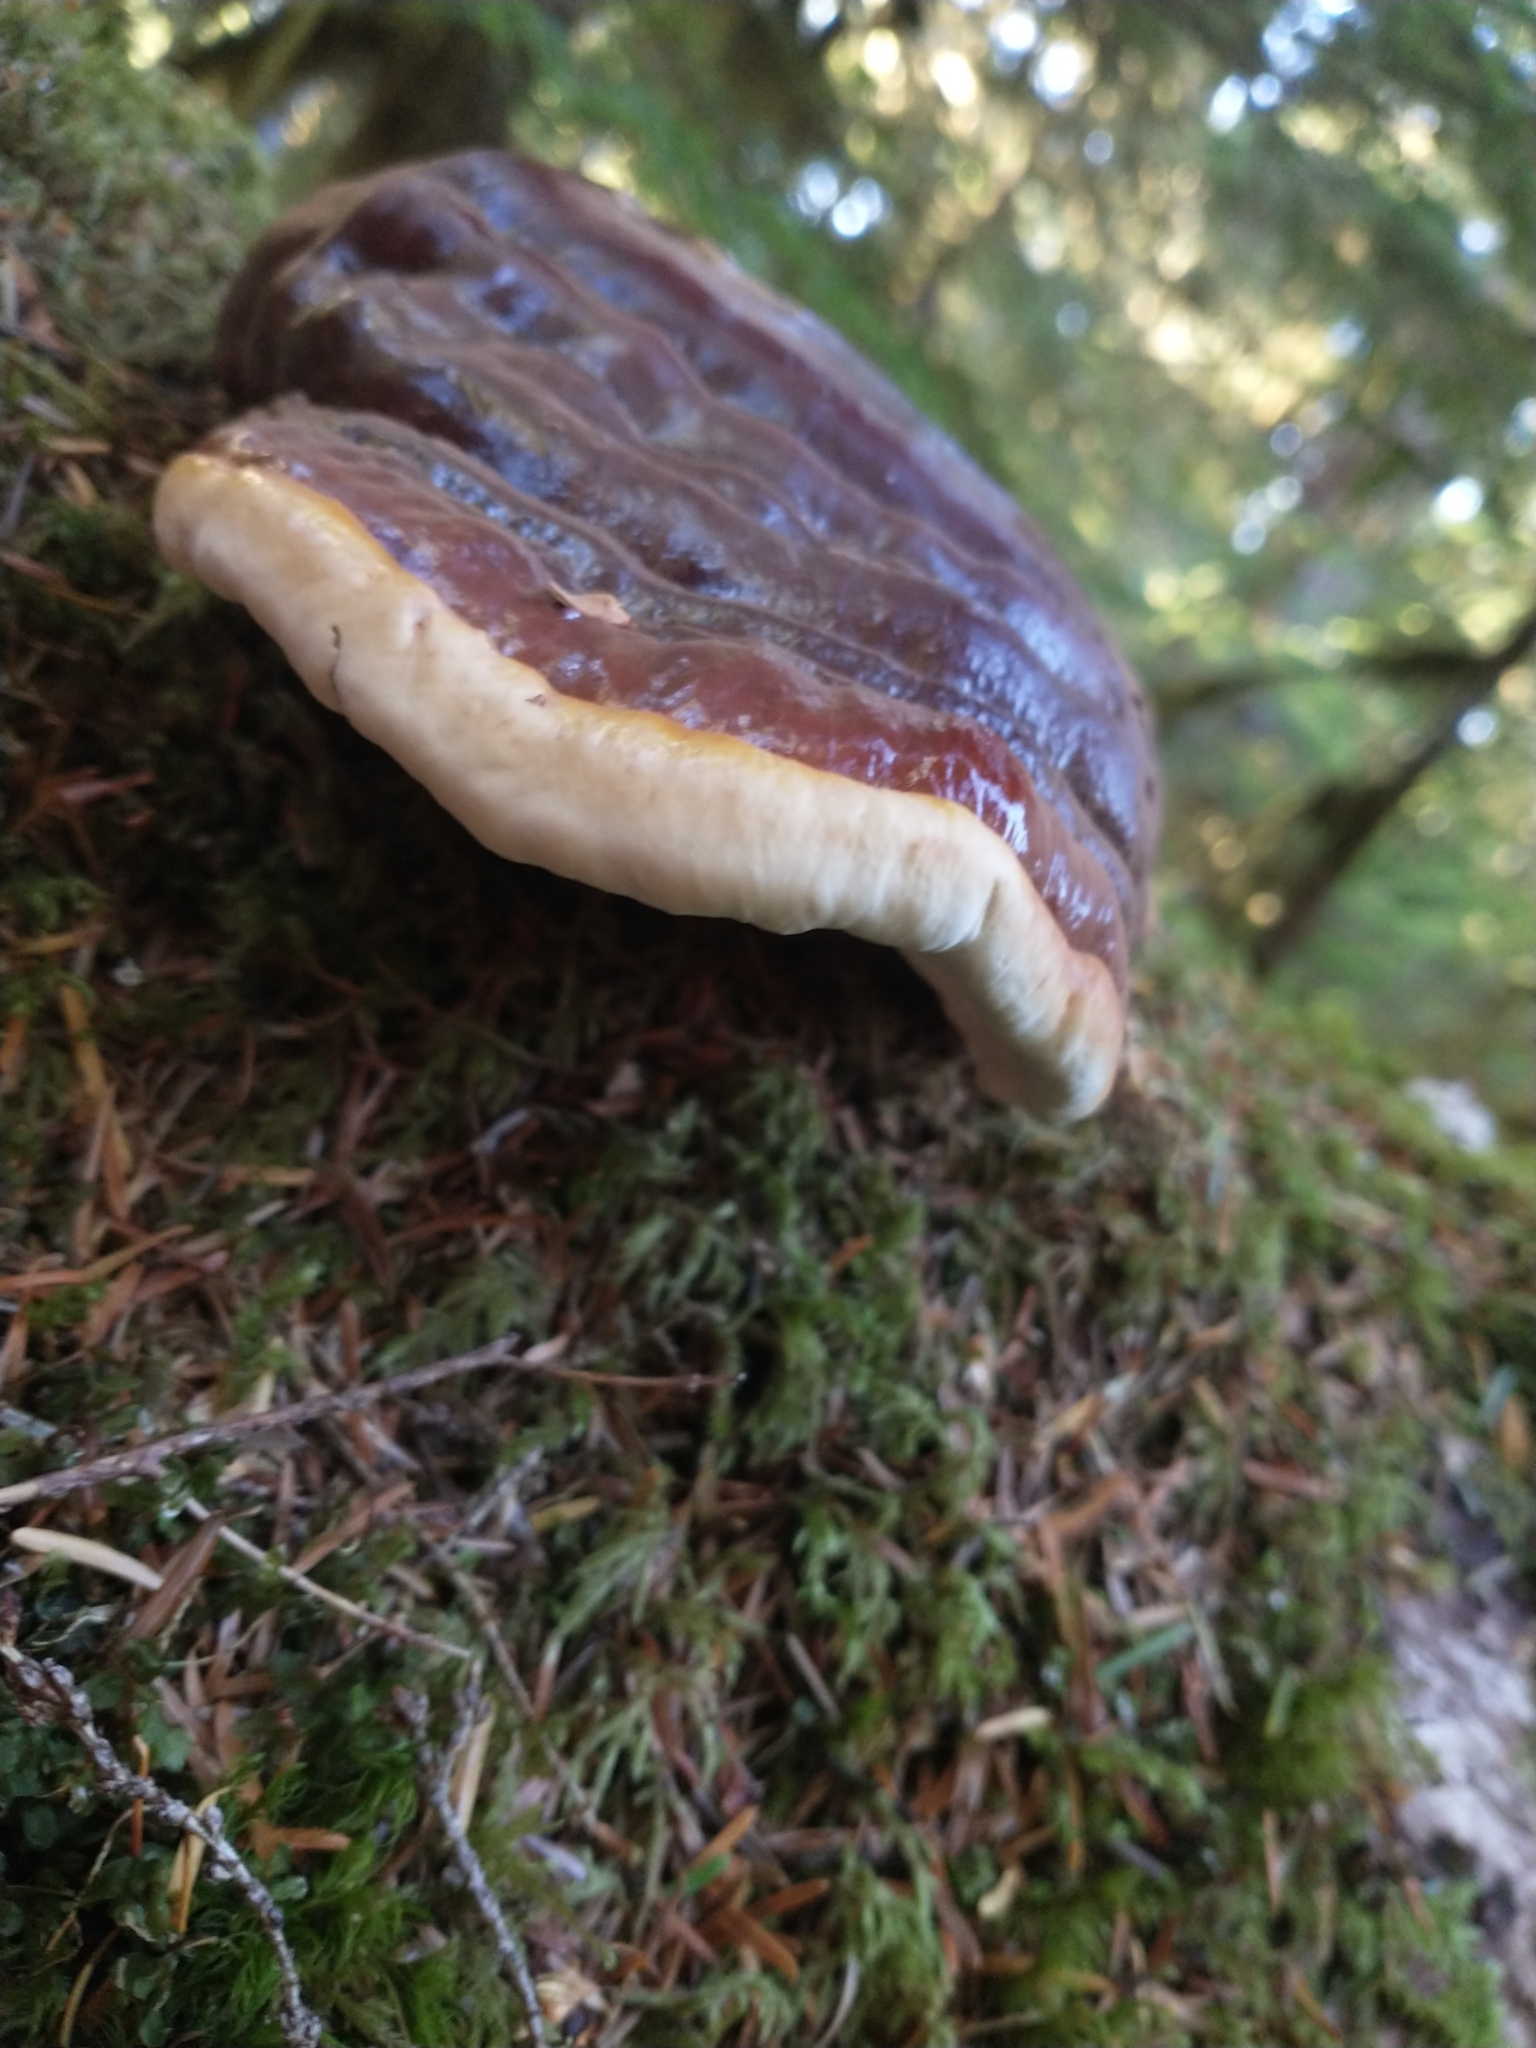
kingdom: Fungi
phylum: Basidiomycota
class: Agaricomycetes
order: Polyporales
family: Polyporaceae
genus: Ganoderma
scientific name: Ganoderma oregonense
